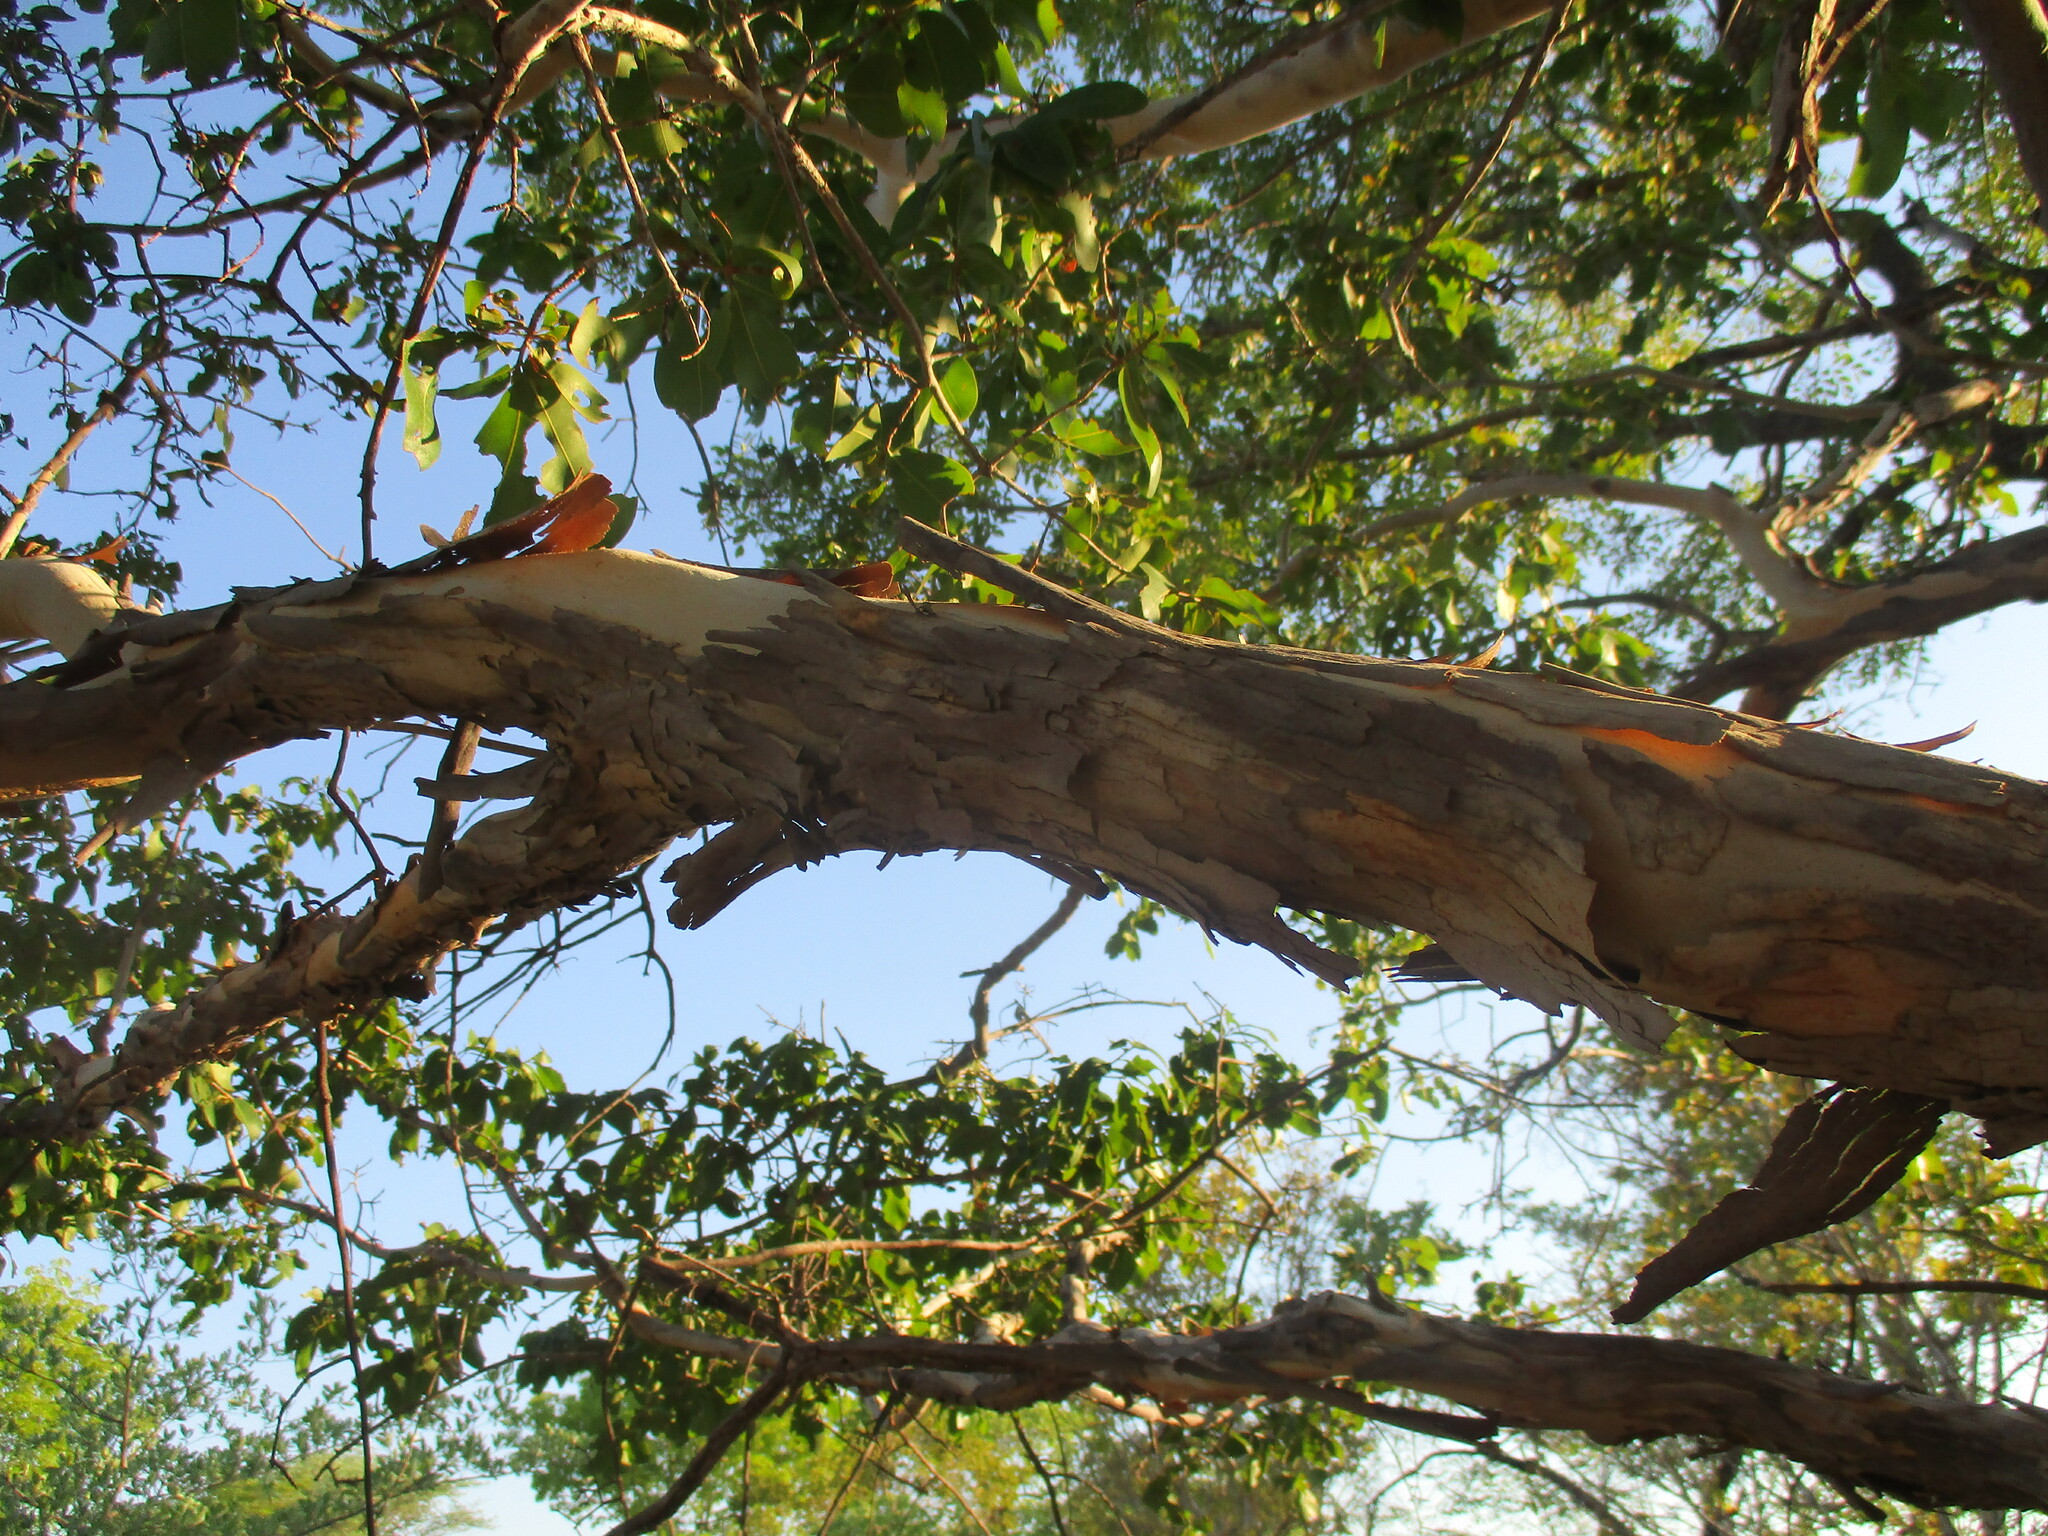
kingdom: Plantae
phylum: Tracheophyta
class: Magnoliopsida
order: Malpighiales
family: Ochnaceae
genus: Ochna
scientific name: Ochna pulchra
